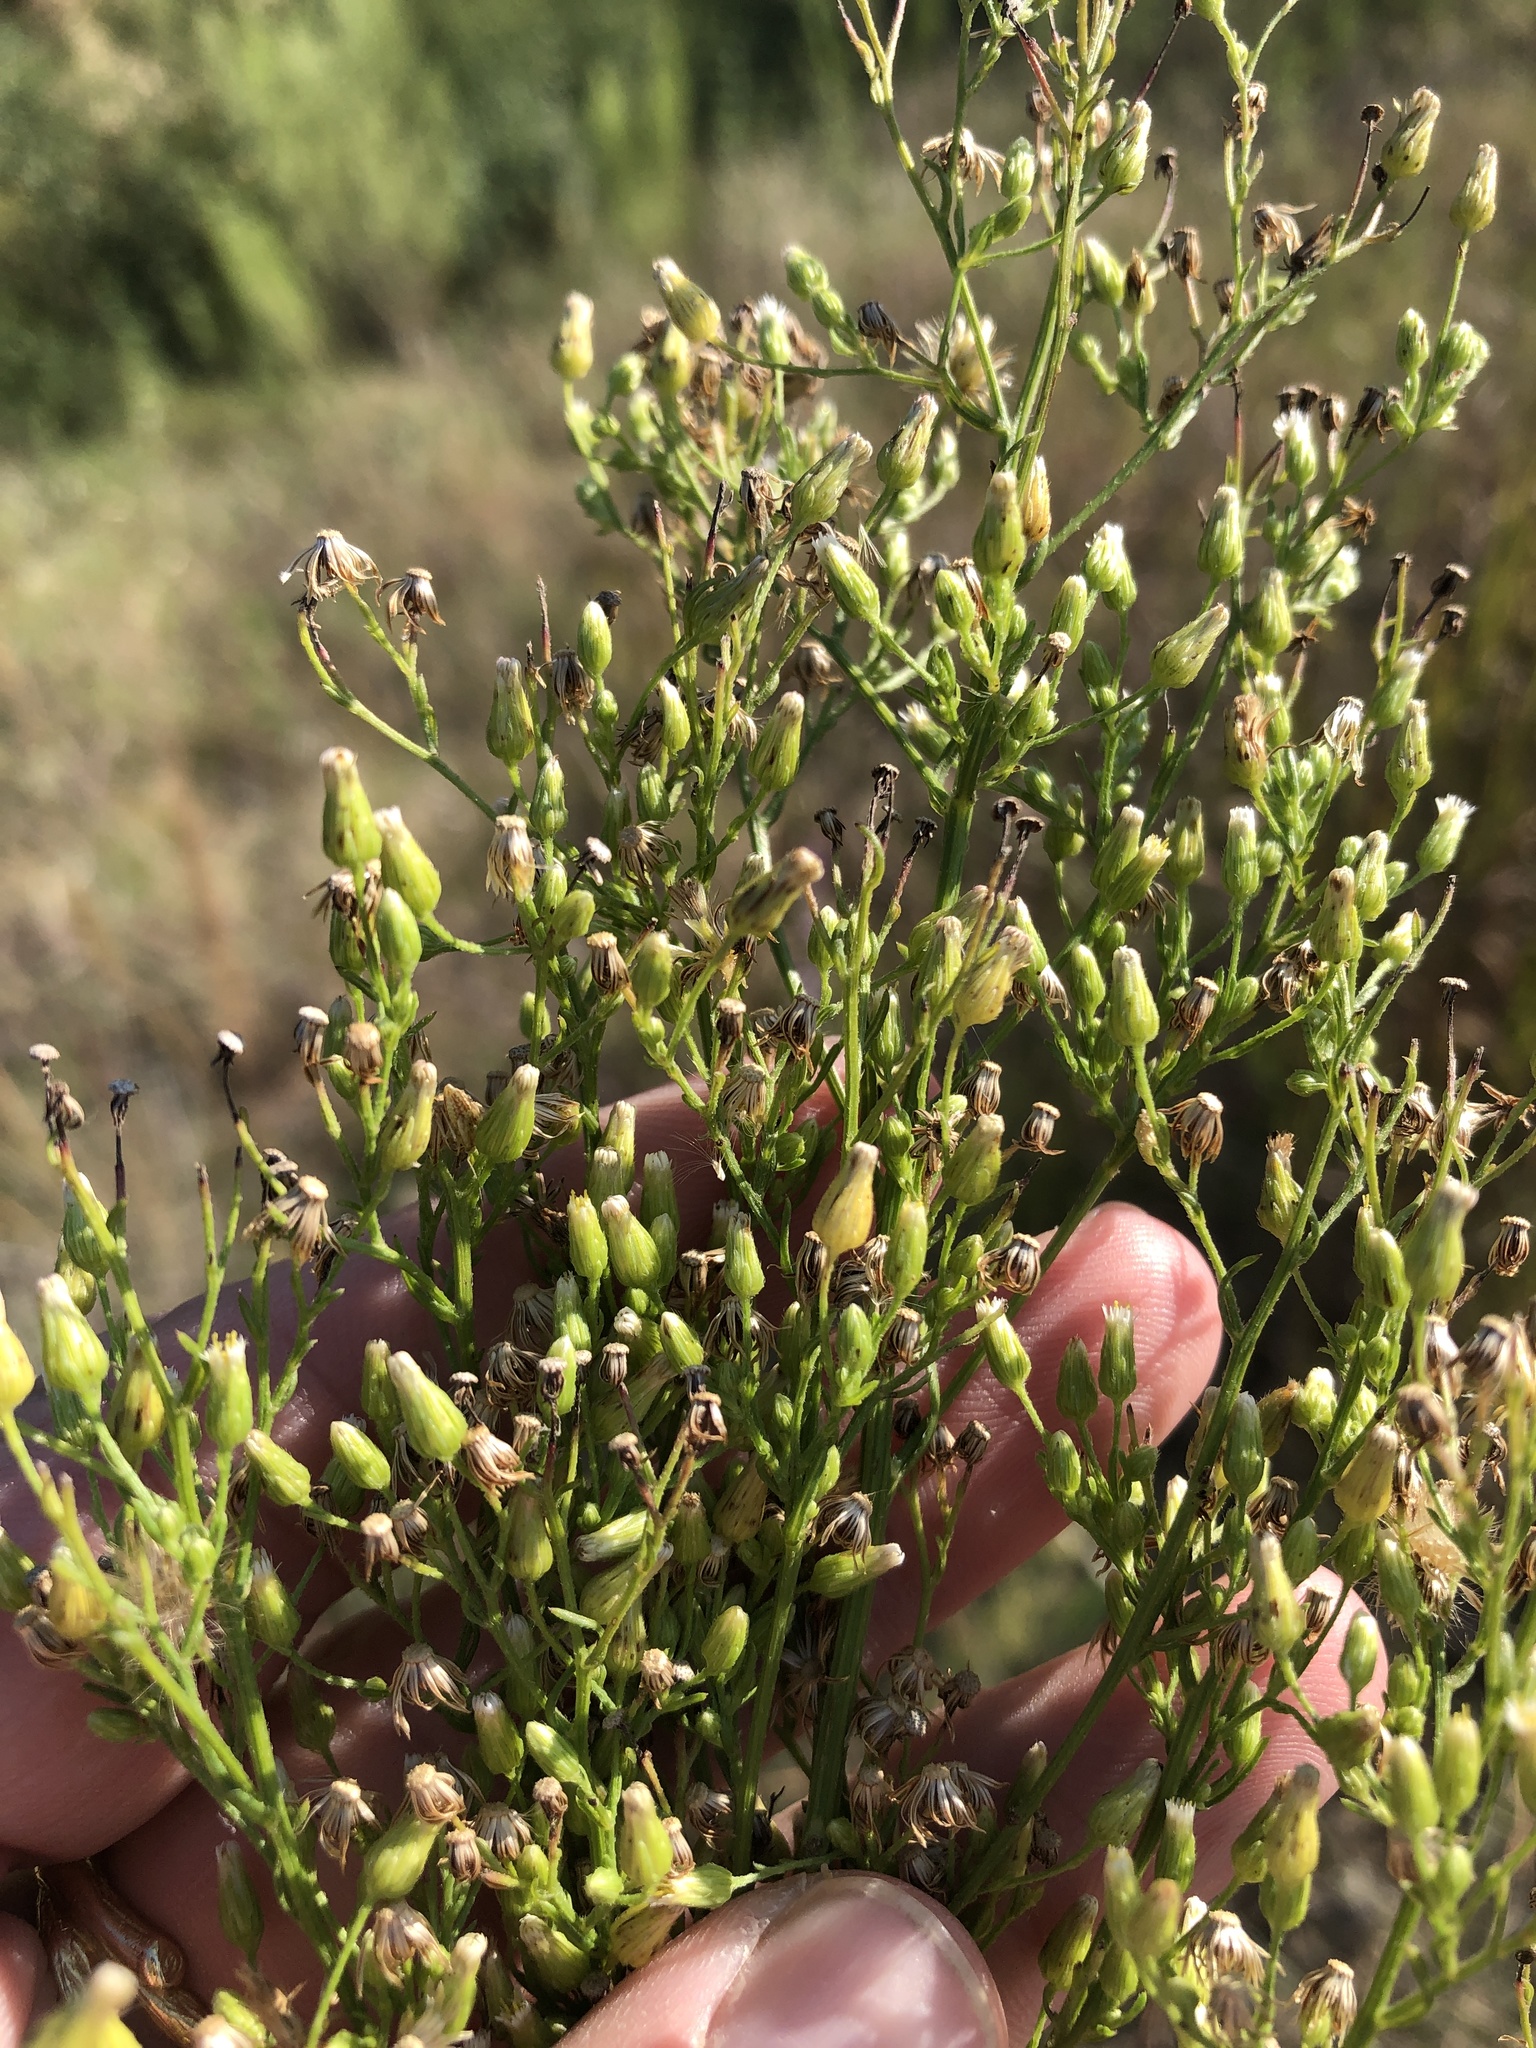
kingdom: Plantae
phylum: Tracheophyta
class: Magnoliopsida
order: Asterales
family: Asteraceae
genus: Erigeron
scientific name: Erigeron canadensis
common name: Canadian fleabane
